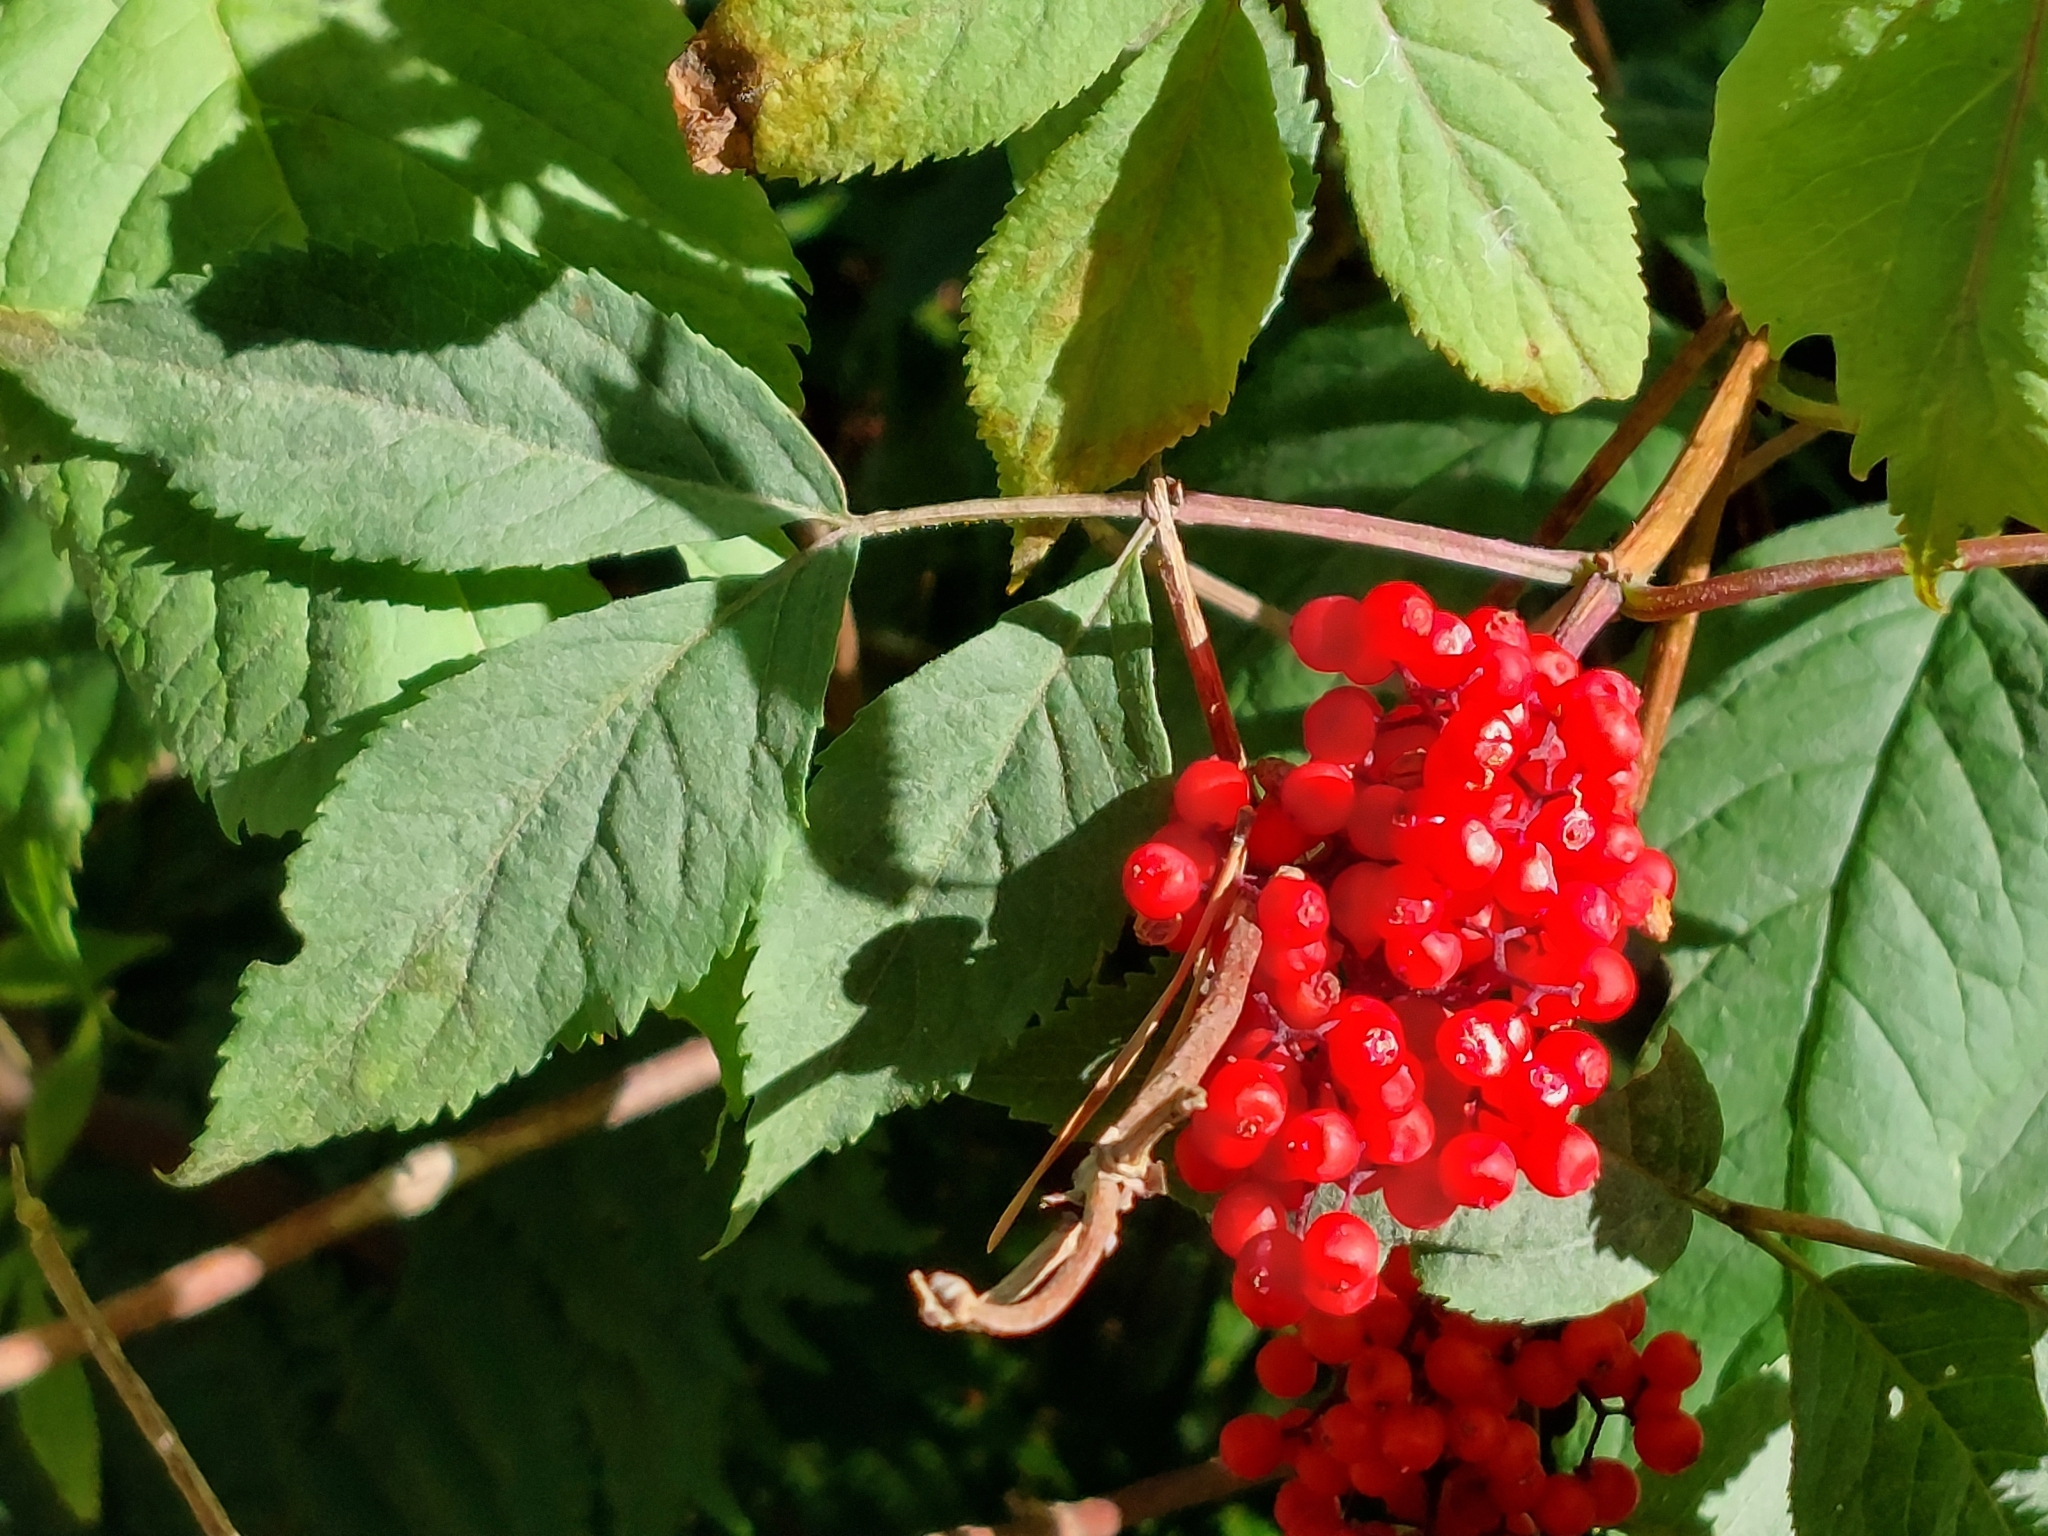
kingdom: Plantae
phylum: Tracheophyta
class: Magnoliopsida
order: Dipsacales
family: Viburnaceae
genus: Sambucus
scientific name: Sambucus racemosa
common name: Red-berried elder
